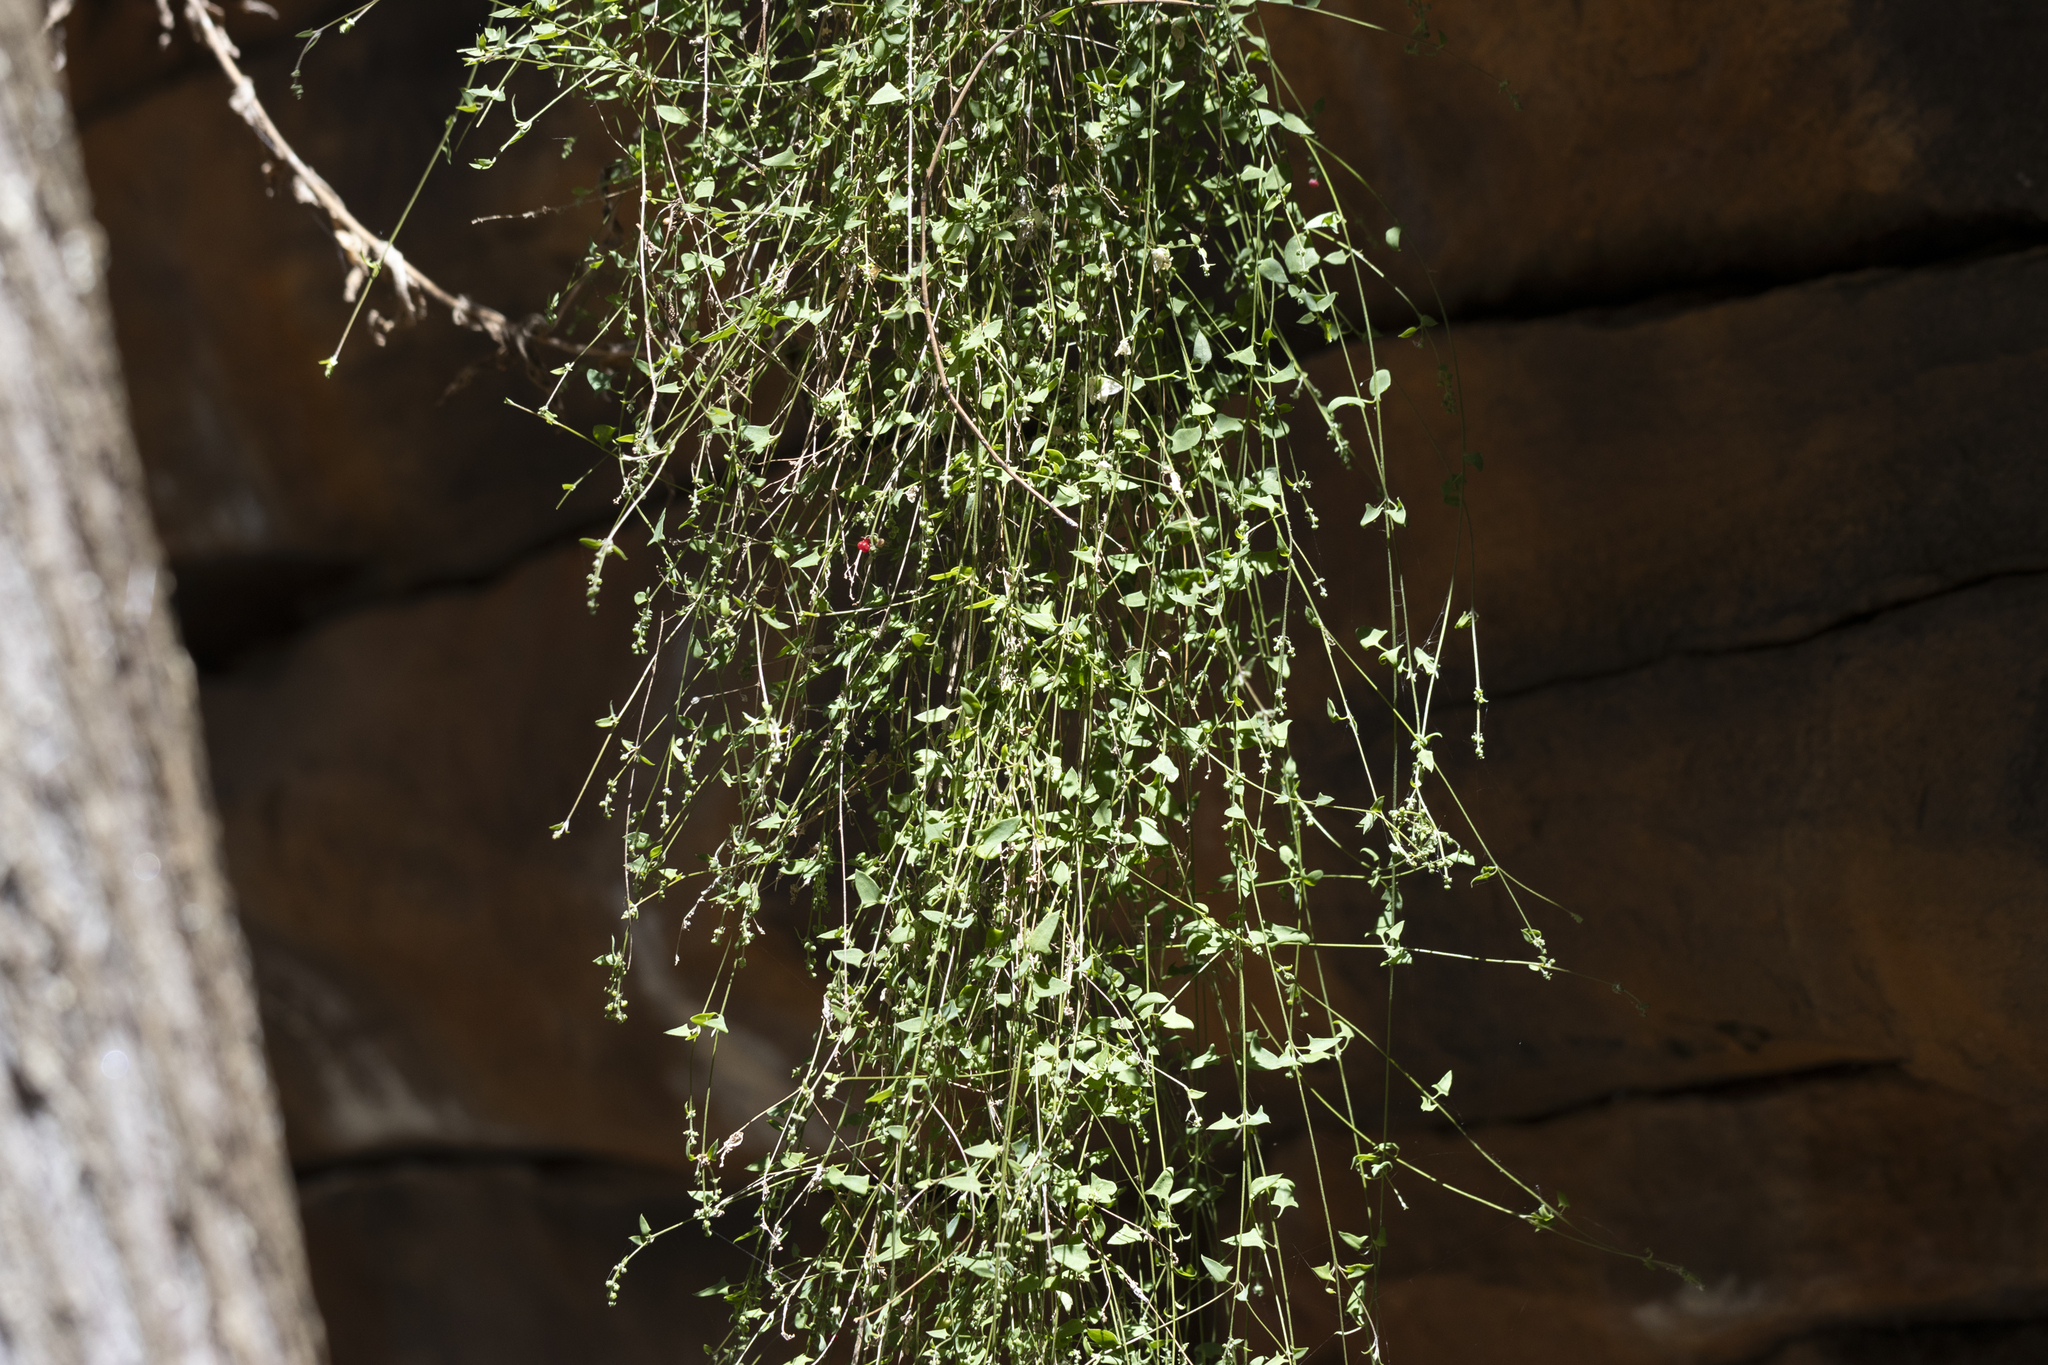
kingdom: Plantae
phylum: Tracheophyta
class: Magnoliopsida
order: Caryophyllales
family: Amaranthaceae
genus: Chenopodium
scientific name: Chenopodium nutans
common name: Climbing-saltbush
